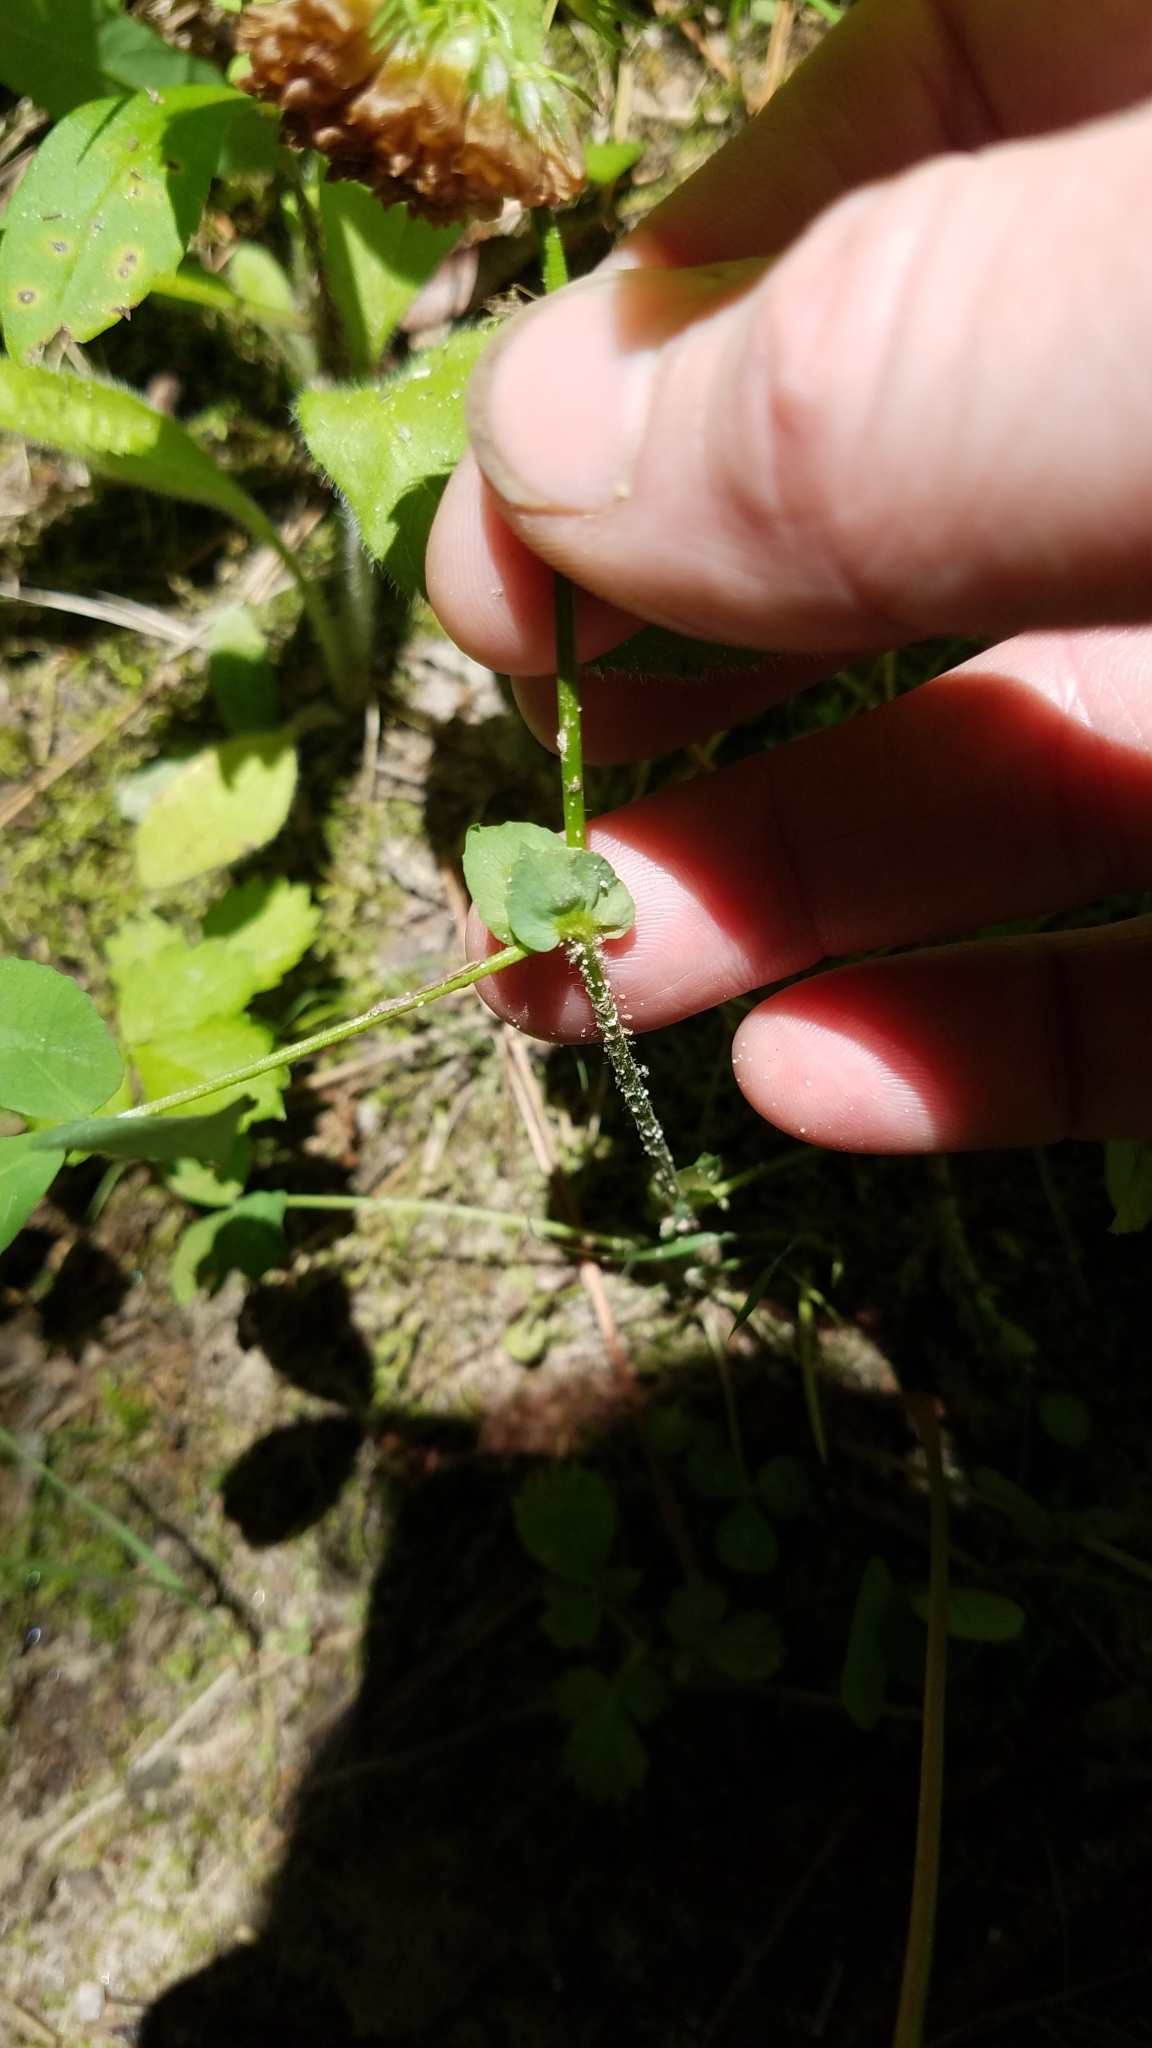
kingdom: Plantae
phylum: Tracheophyta
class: Magnoliopsida
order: Fabales
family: Fabaceae
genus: Trifolium
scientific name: Trifolium reflexum
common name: Buffalo clover
